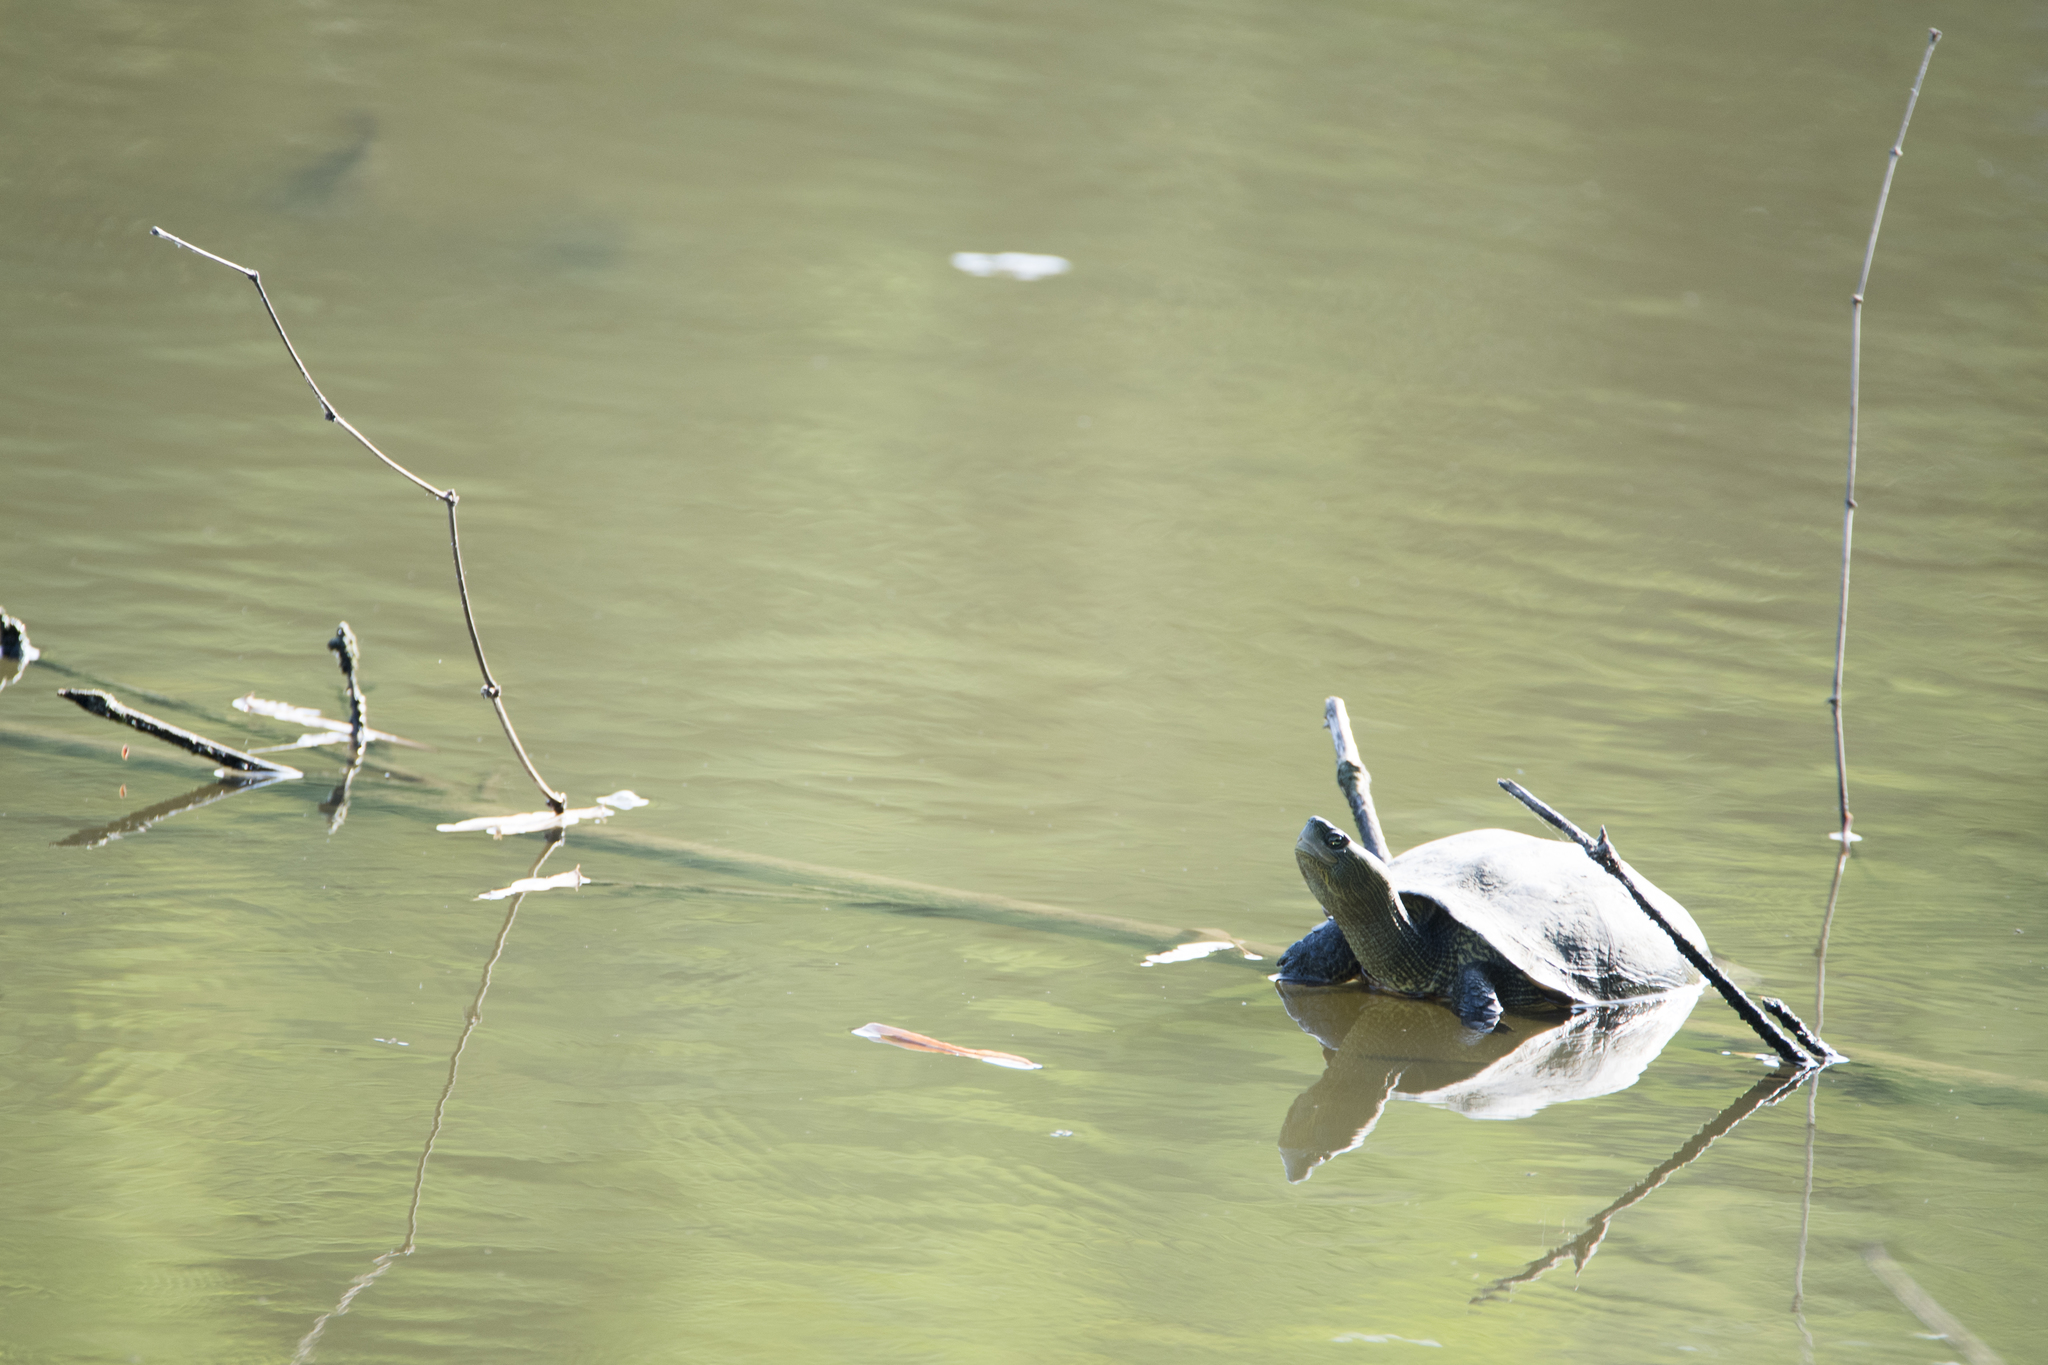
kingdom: Animalia
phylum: Chordata
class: Testudines
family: Geoemydidae
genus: Mauremys
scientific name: Mauremys sinensis
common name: Chinese stripe-necked turtle
